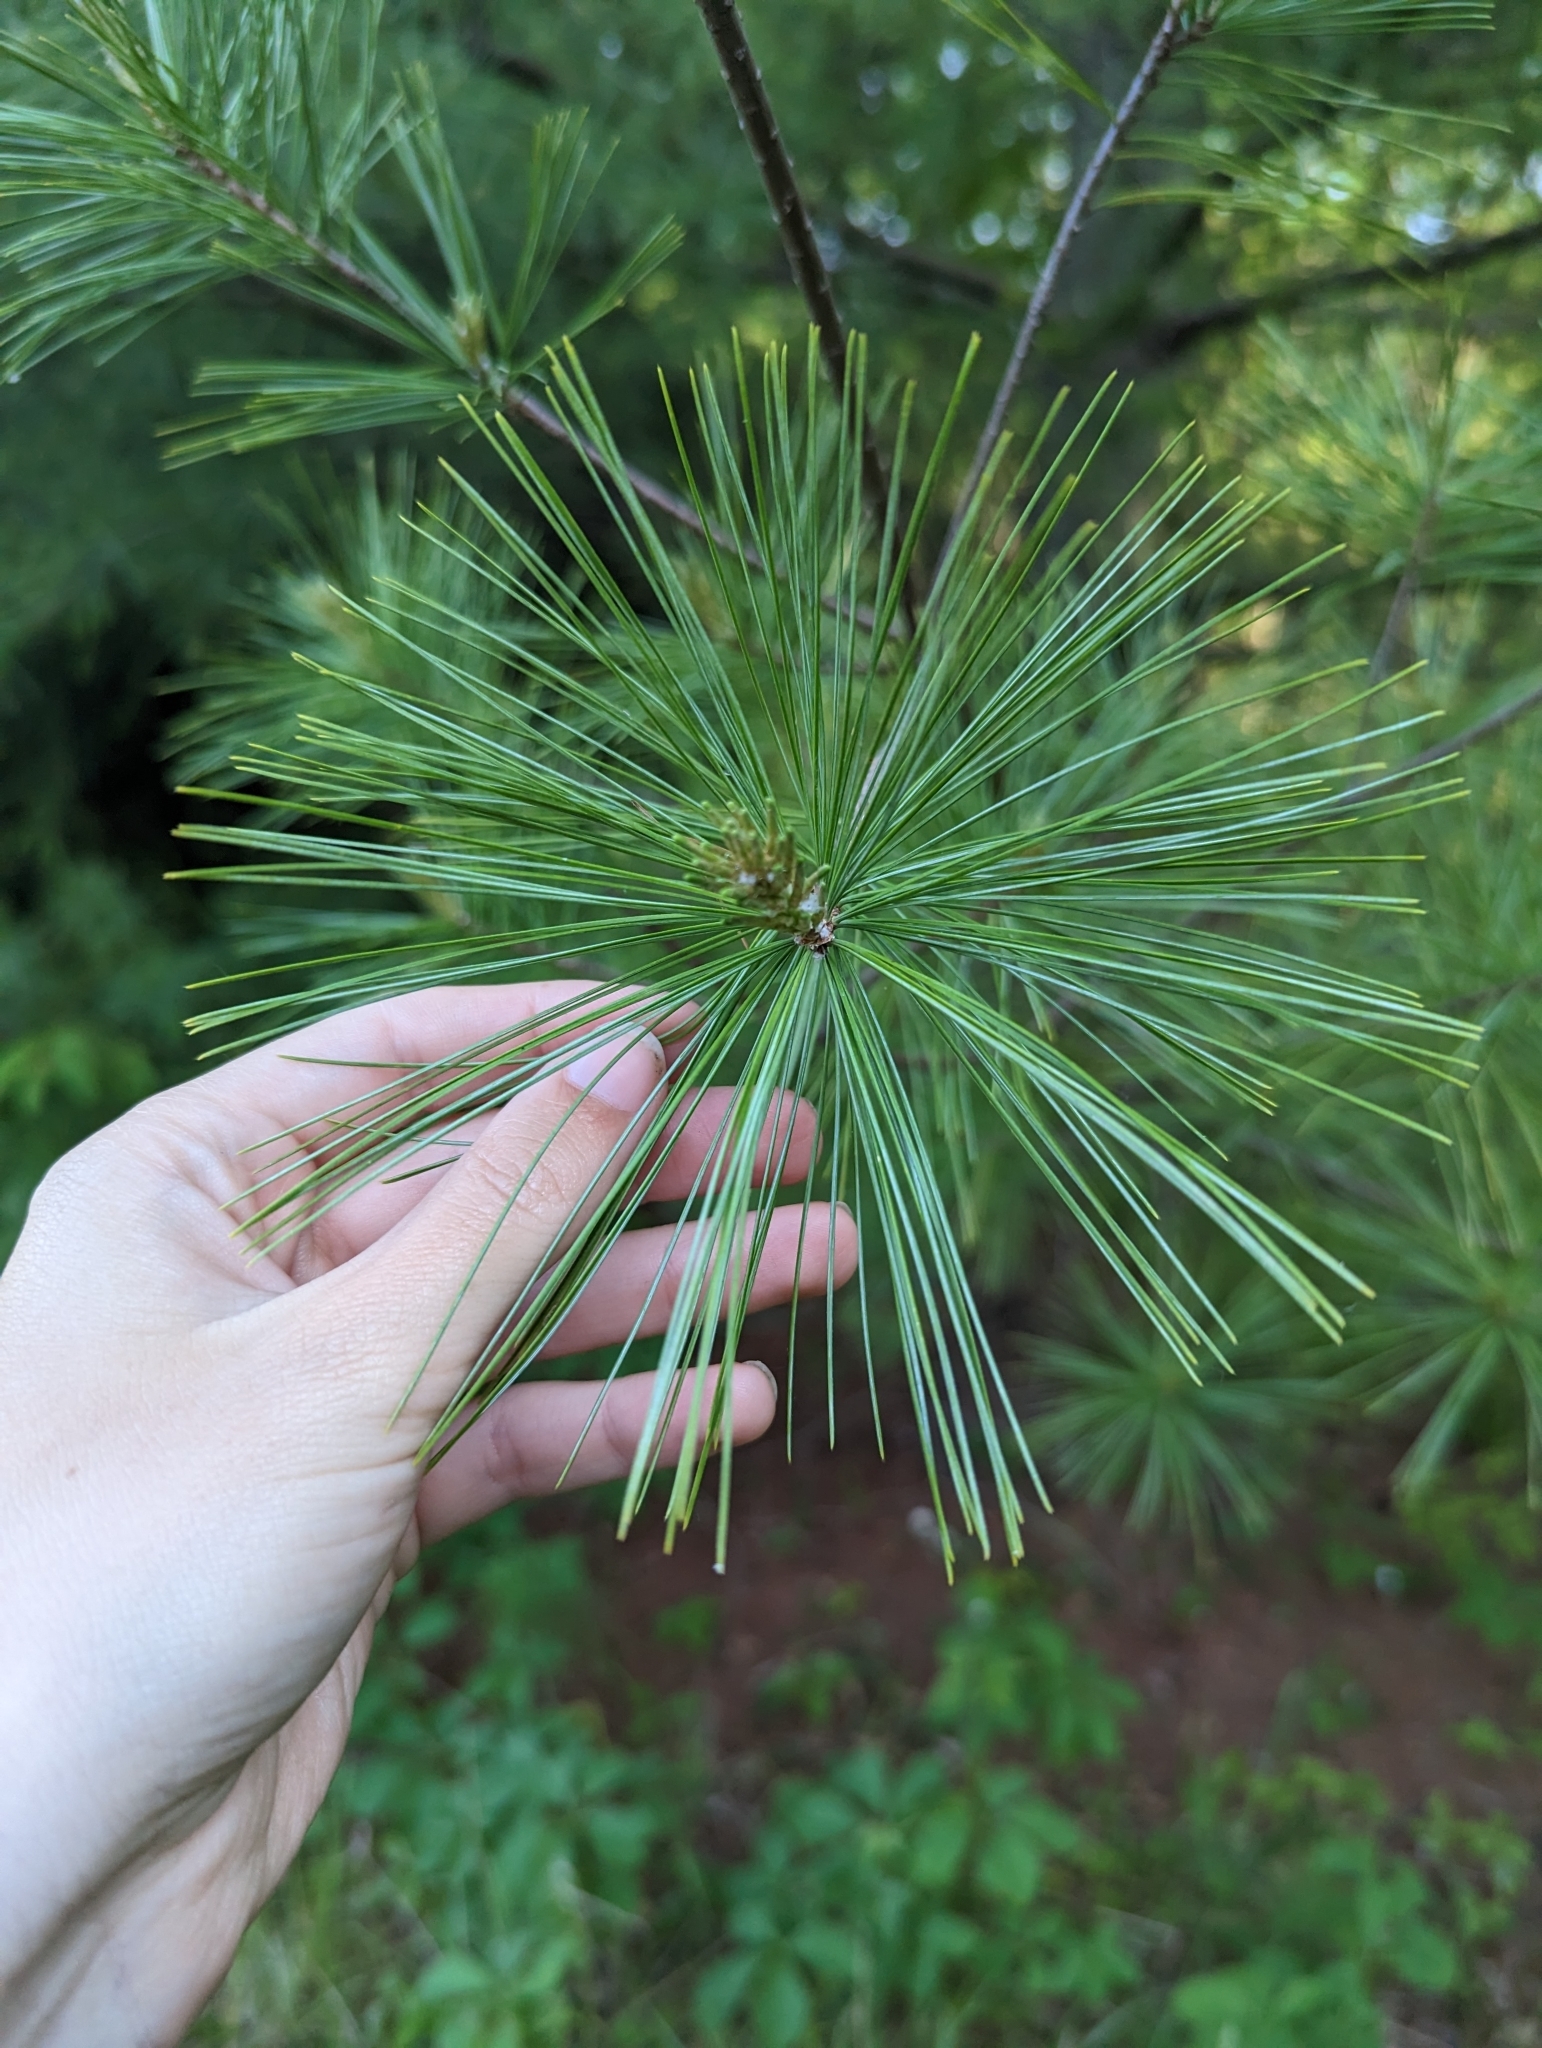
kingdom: Plantae
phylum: Tracheophyta
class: Pinopsida
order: Pinales
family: Pinaceae
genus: Pinus
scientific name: Pinus strobus
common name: Weymouth pine
